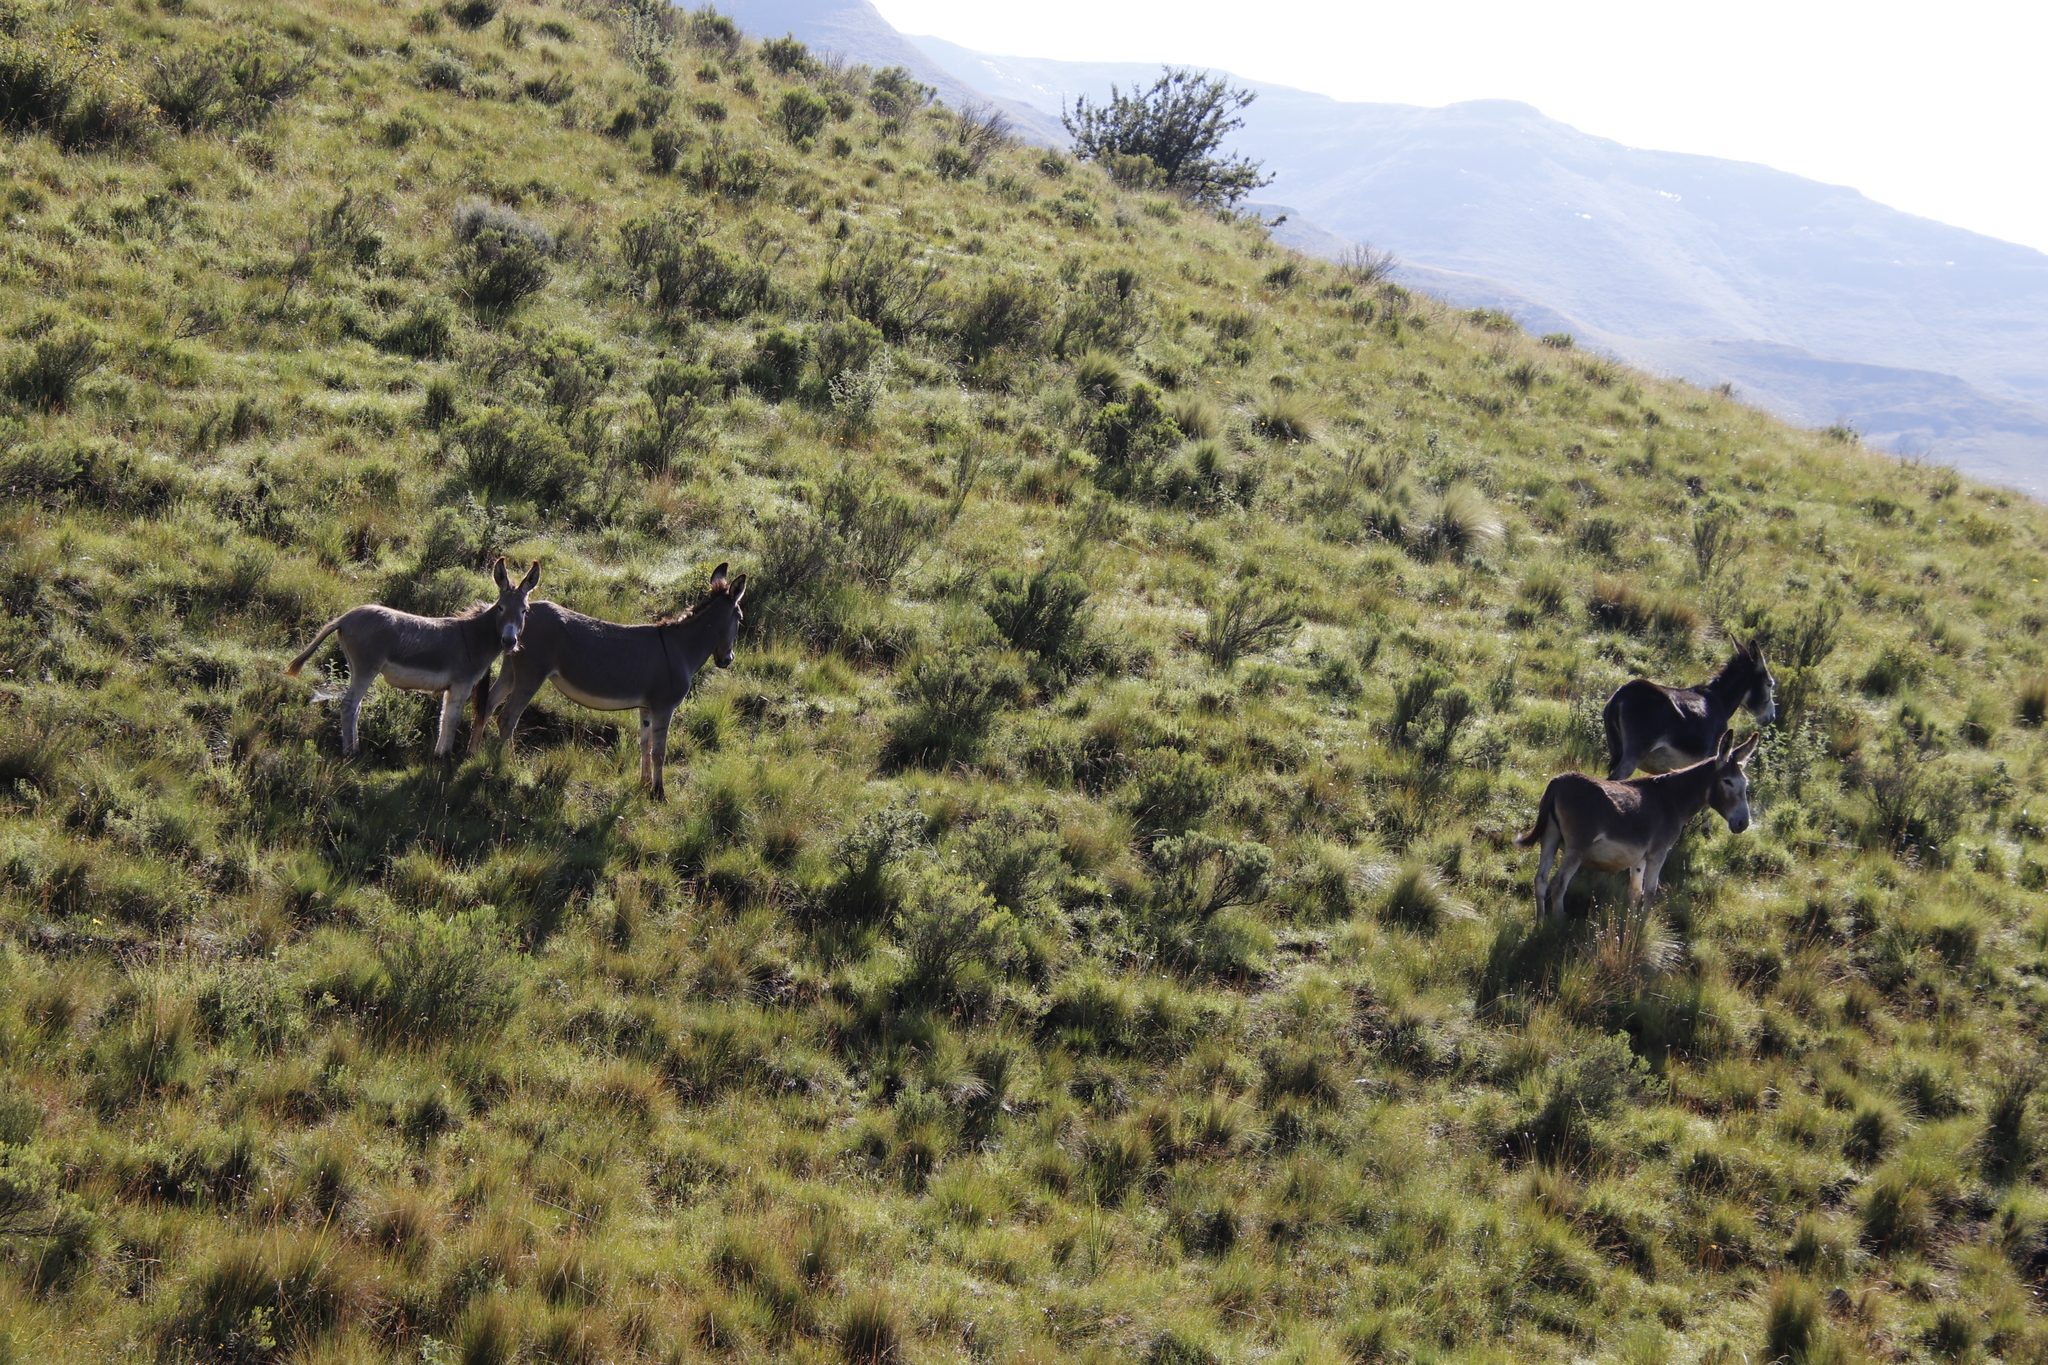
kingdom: Animalia
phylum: Chordata
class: Mammalia
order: Perissodactyla
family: Equidae
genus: Equus
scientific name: Equus asinus
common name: Ass
